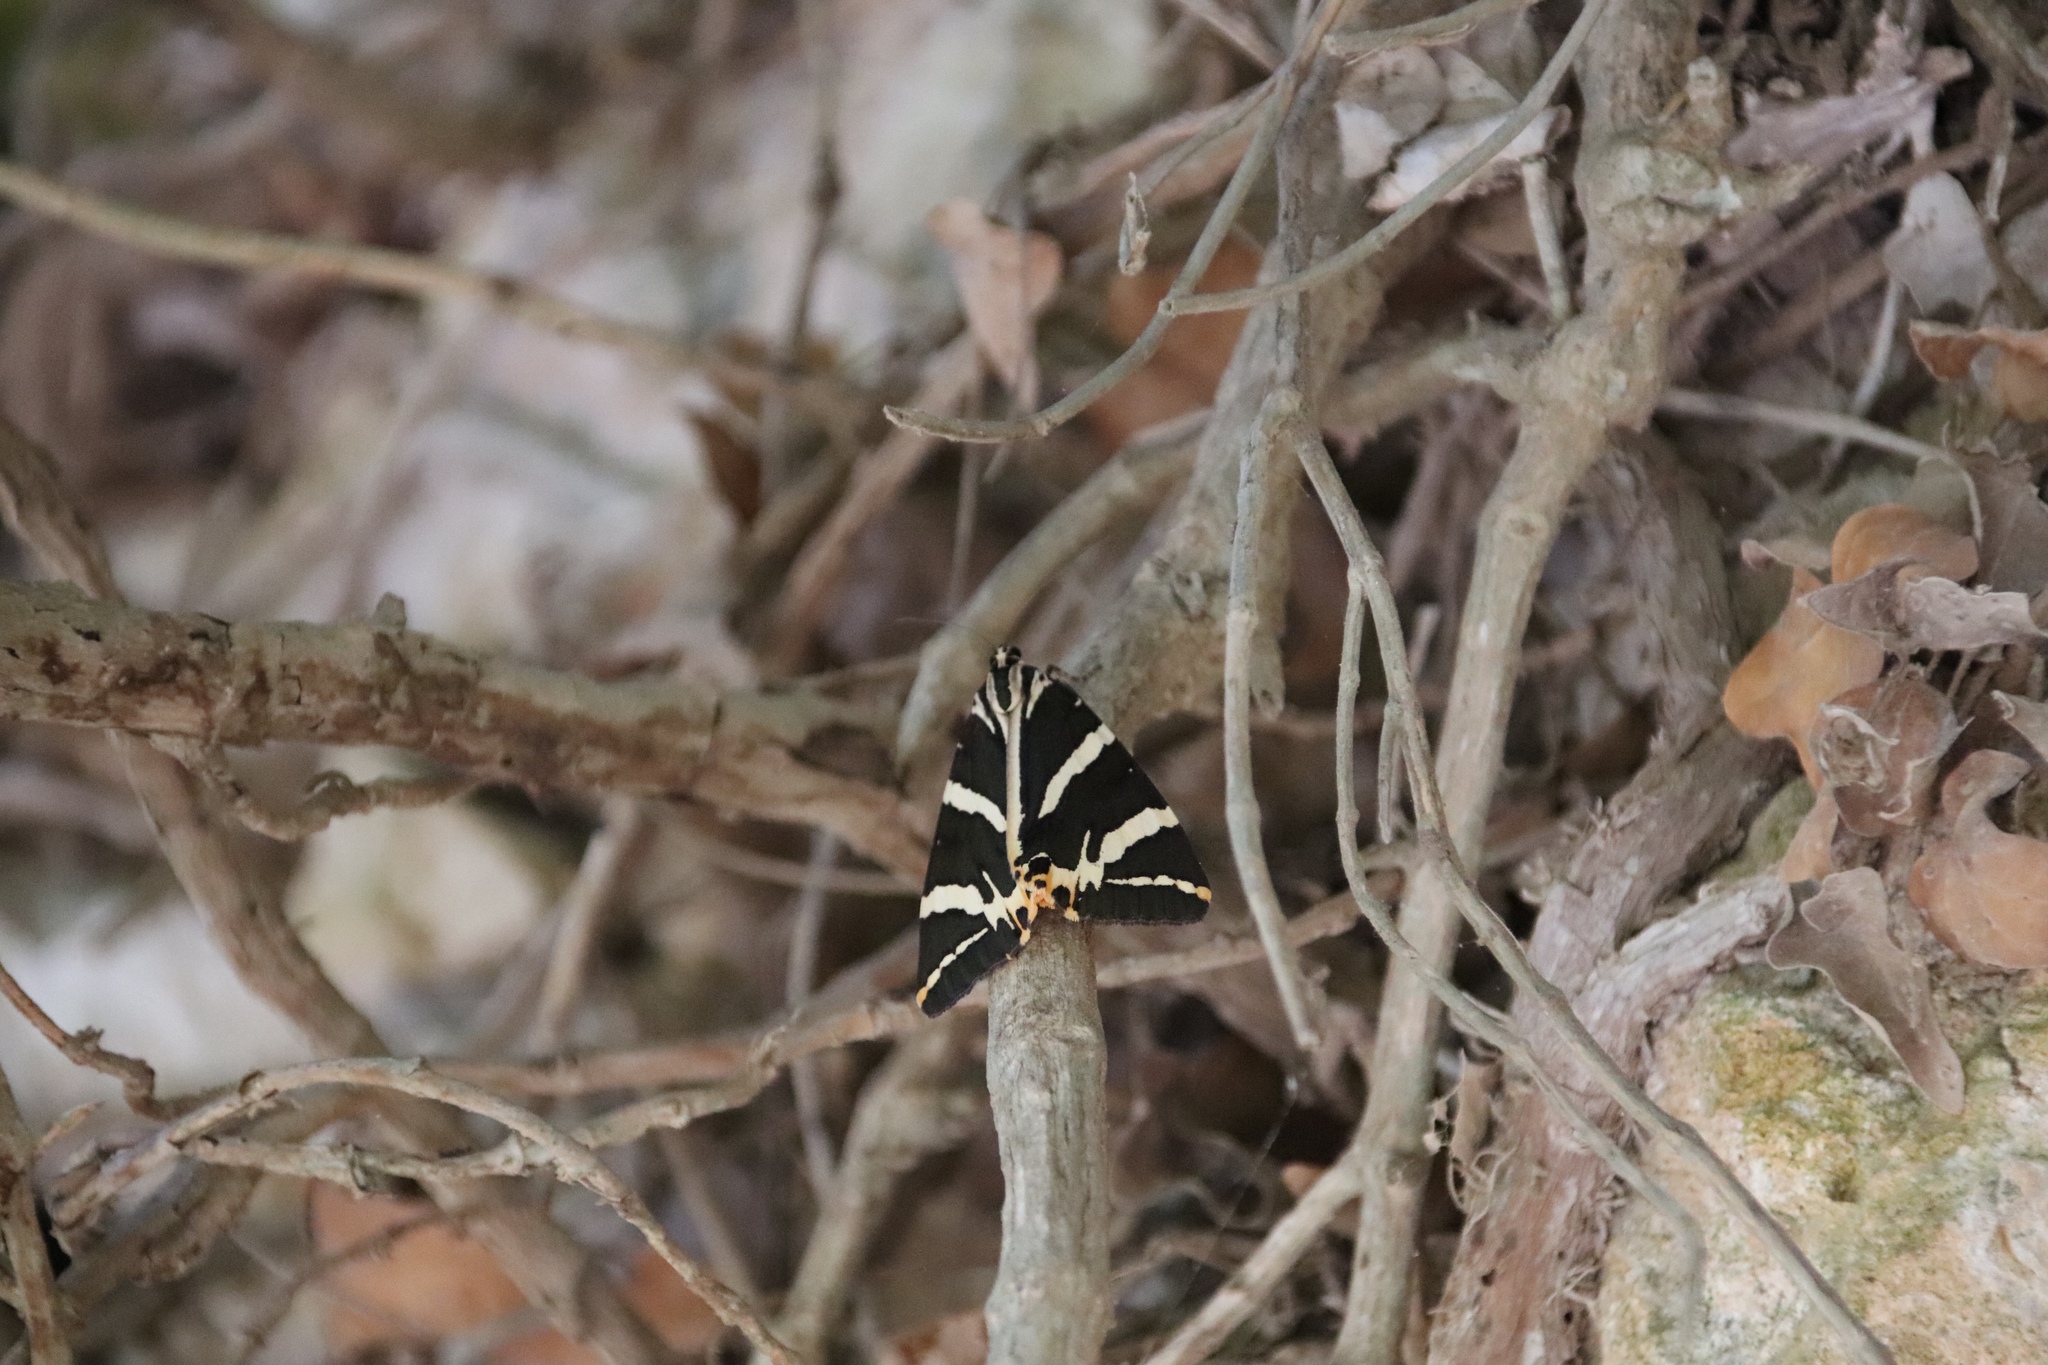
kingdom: Animalia
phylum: Arthropoda
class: Insecta
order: Lepidoptera
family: Erebidae
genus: Euplagia
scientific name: Euplagia quadripunctaria
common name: Jersey tiger
